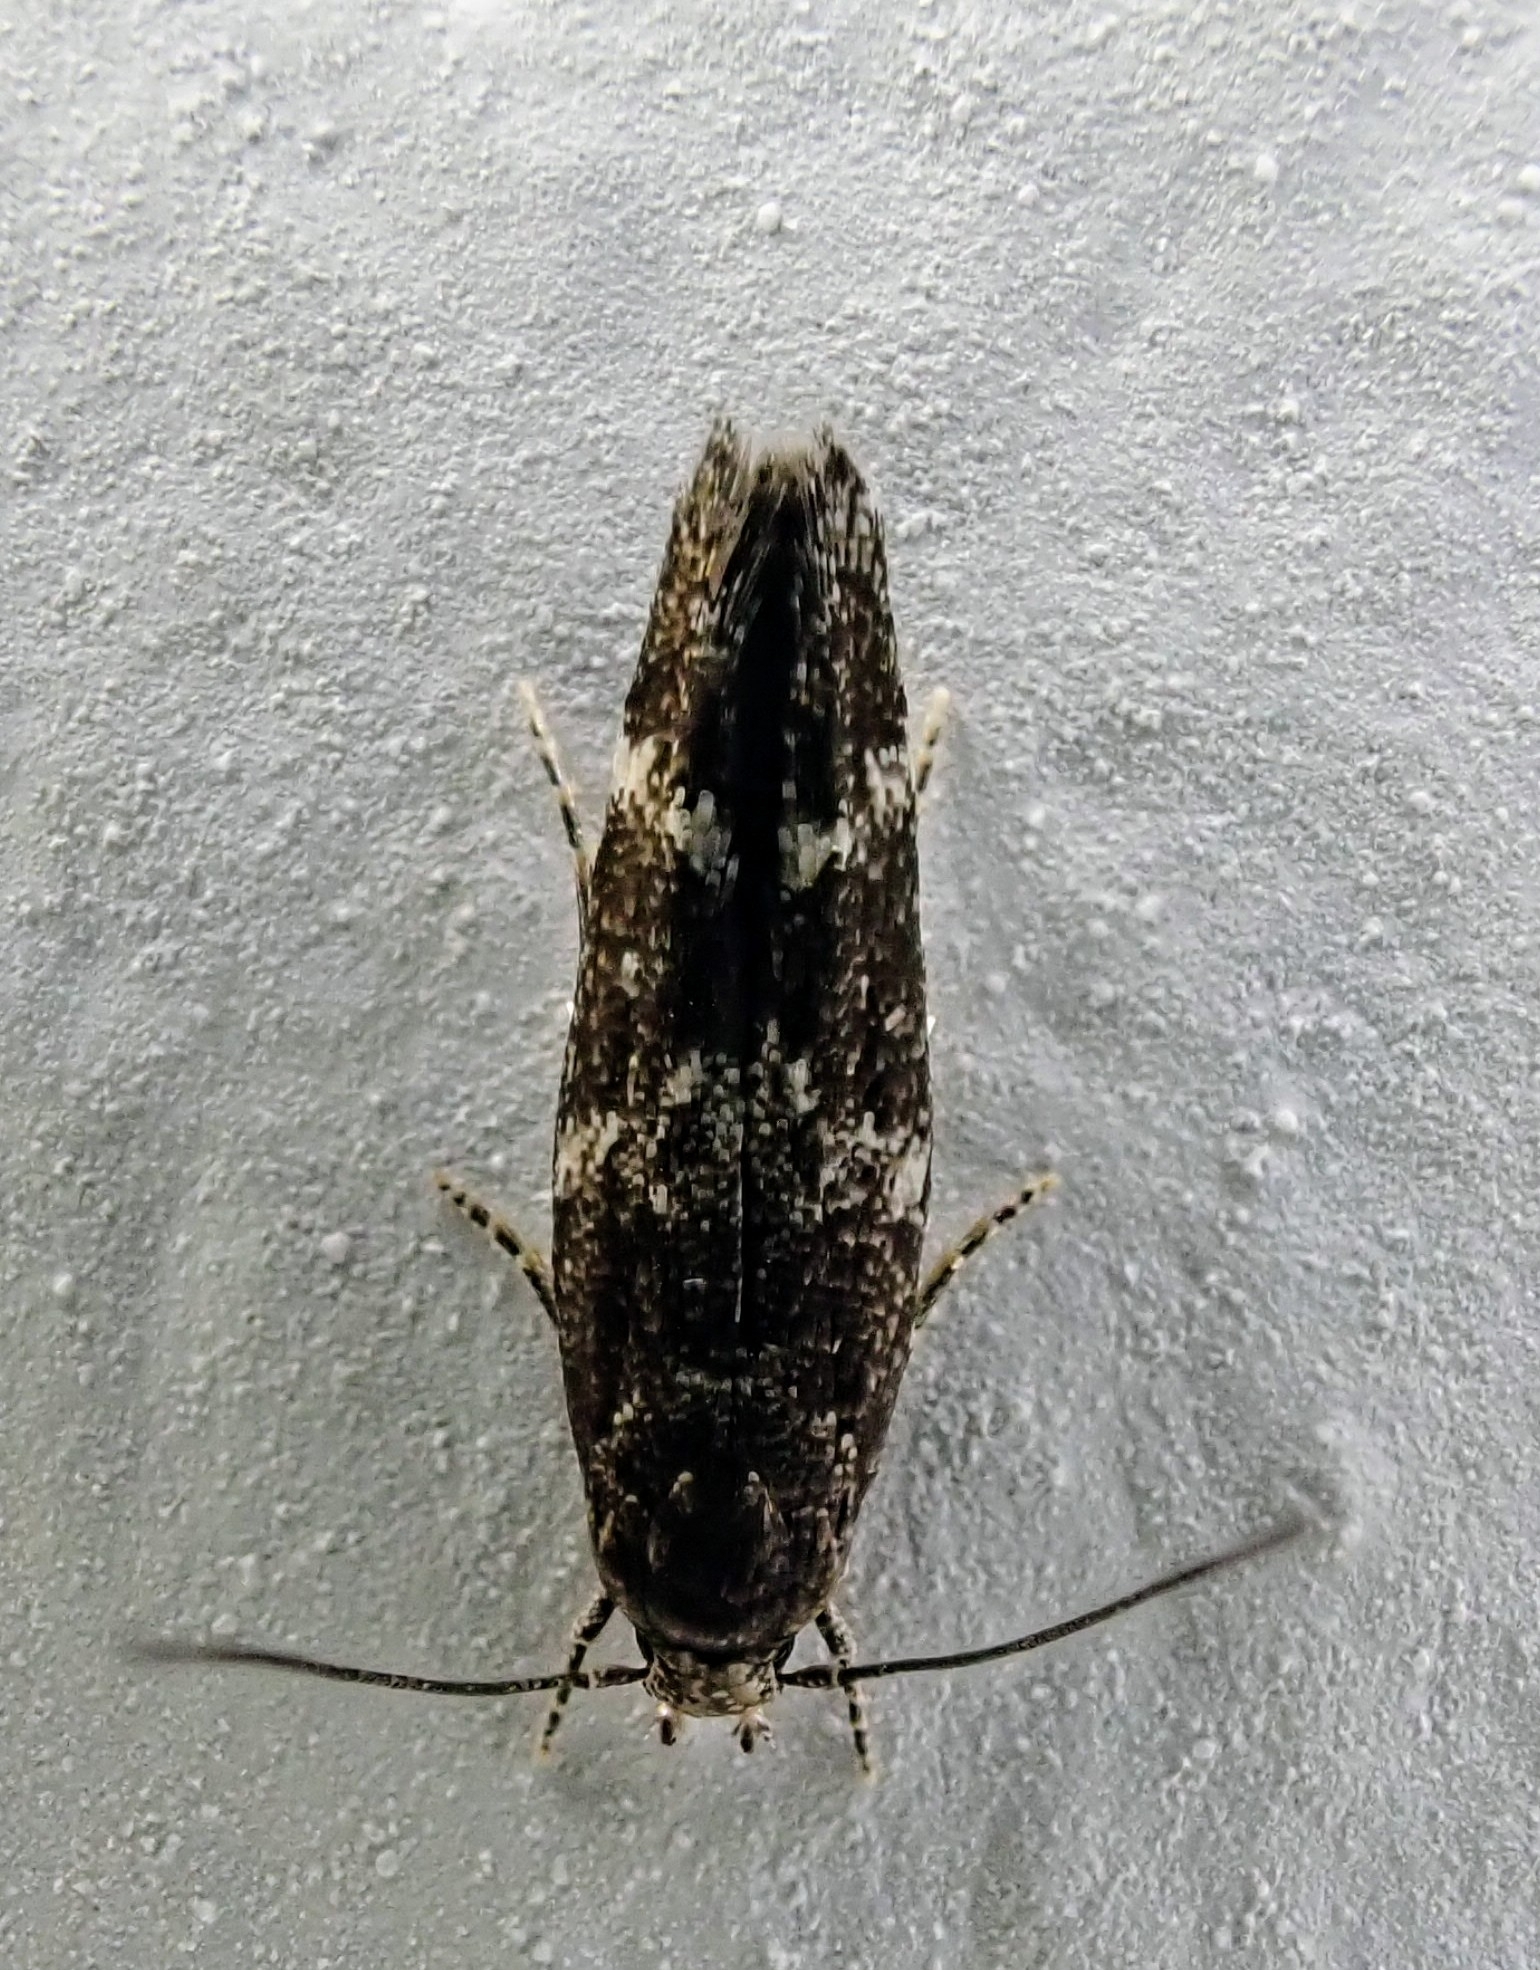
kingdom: Animalia
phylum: Arthropoda
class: Insecta
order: Lepidoptera
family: Momphidae
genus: Mompha
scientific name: Mompha subbistrigella
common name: Garden cosmet
